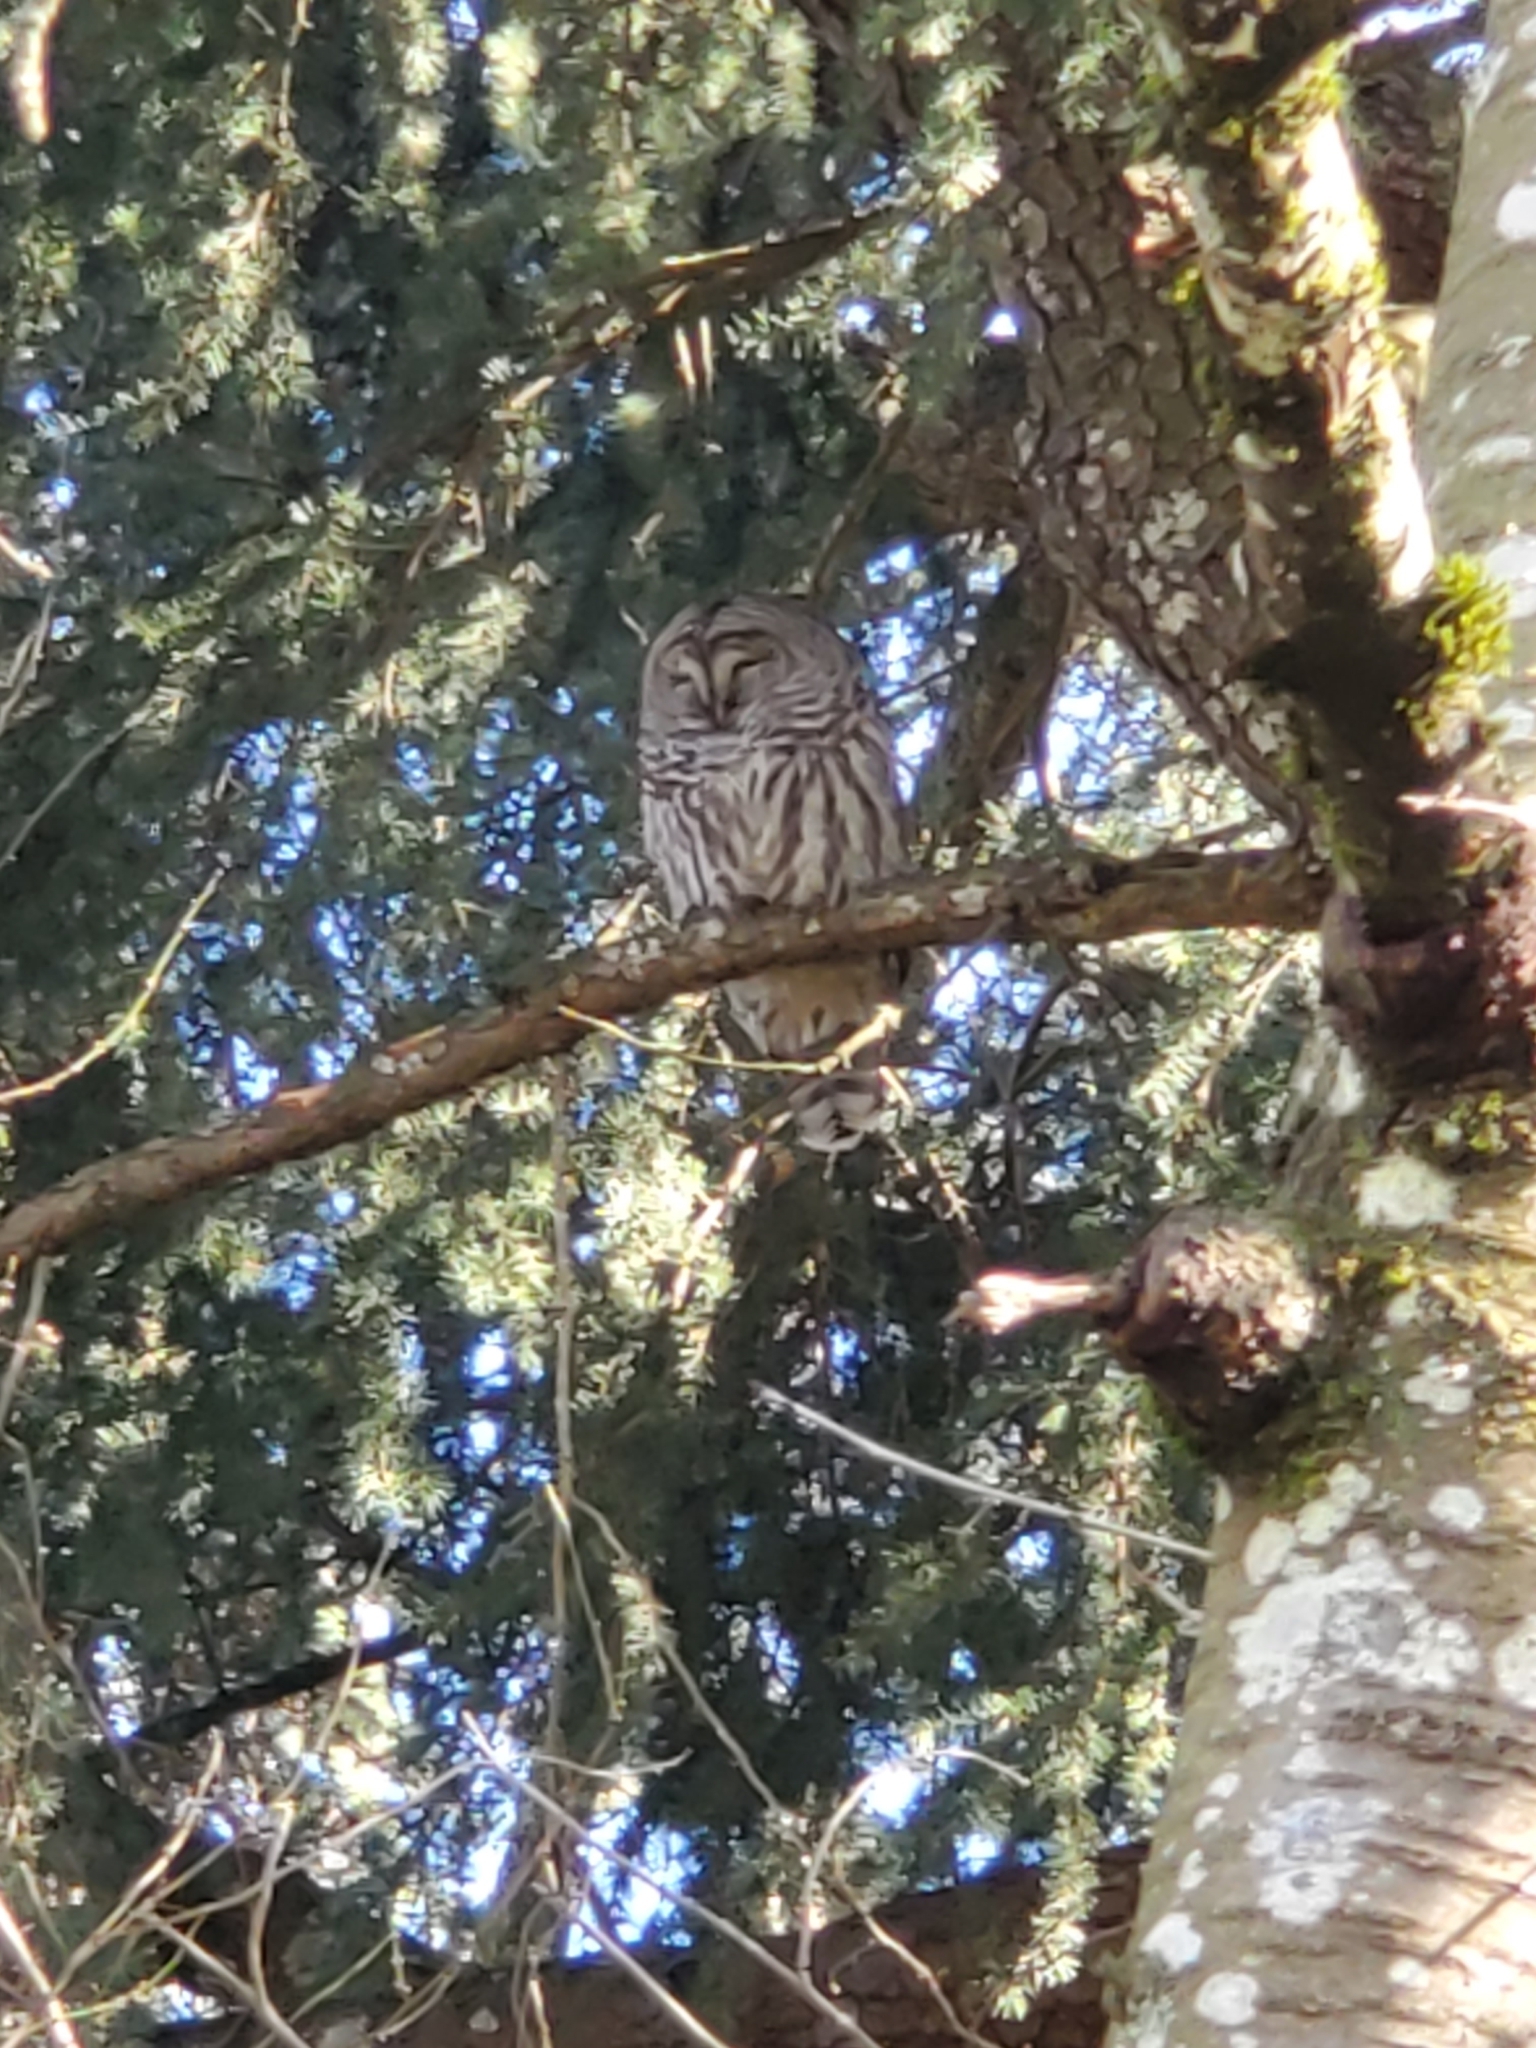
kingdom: Animalia
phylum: Chordata
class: Aves
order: Strigiformes
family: Strigidae
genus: Strix
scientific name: Strix varia
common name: Barred owl
